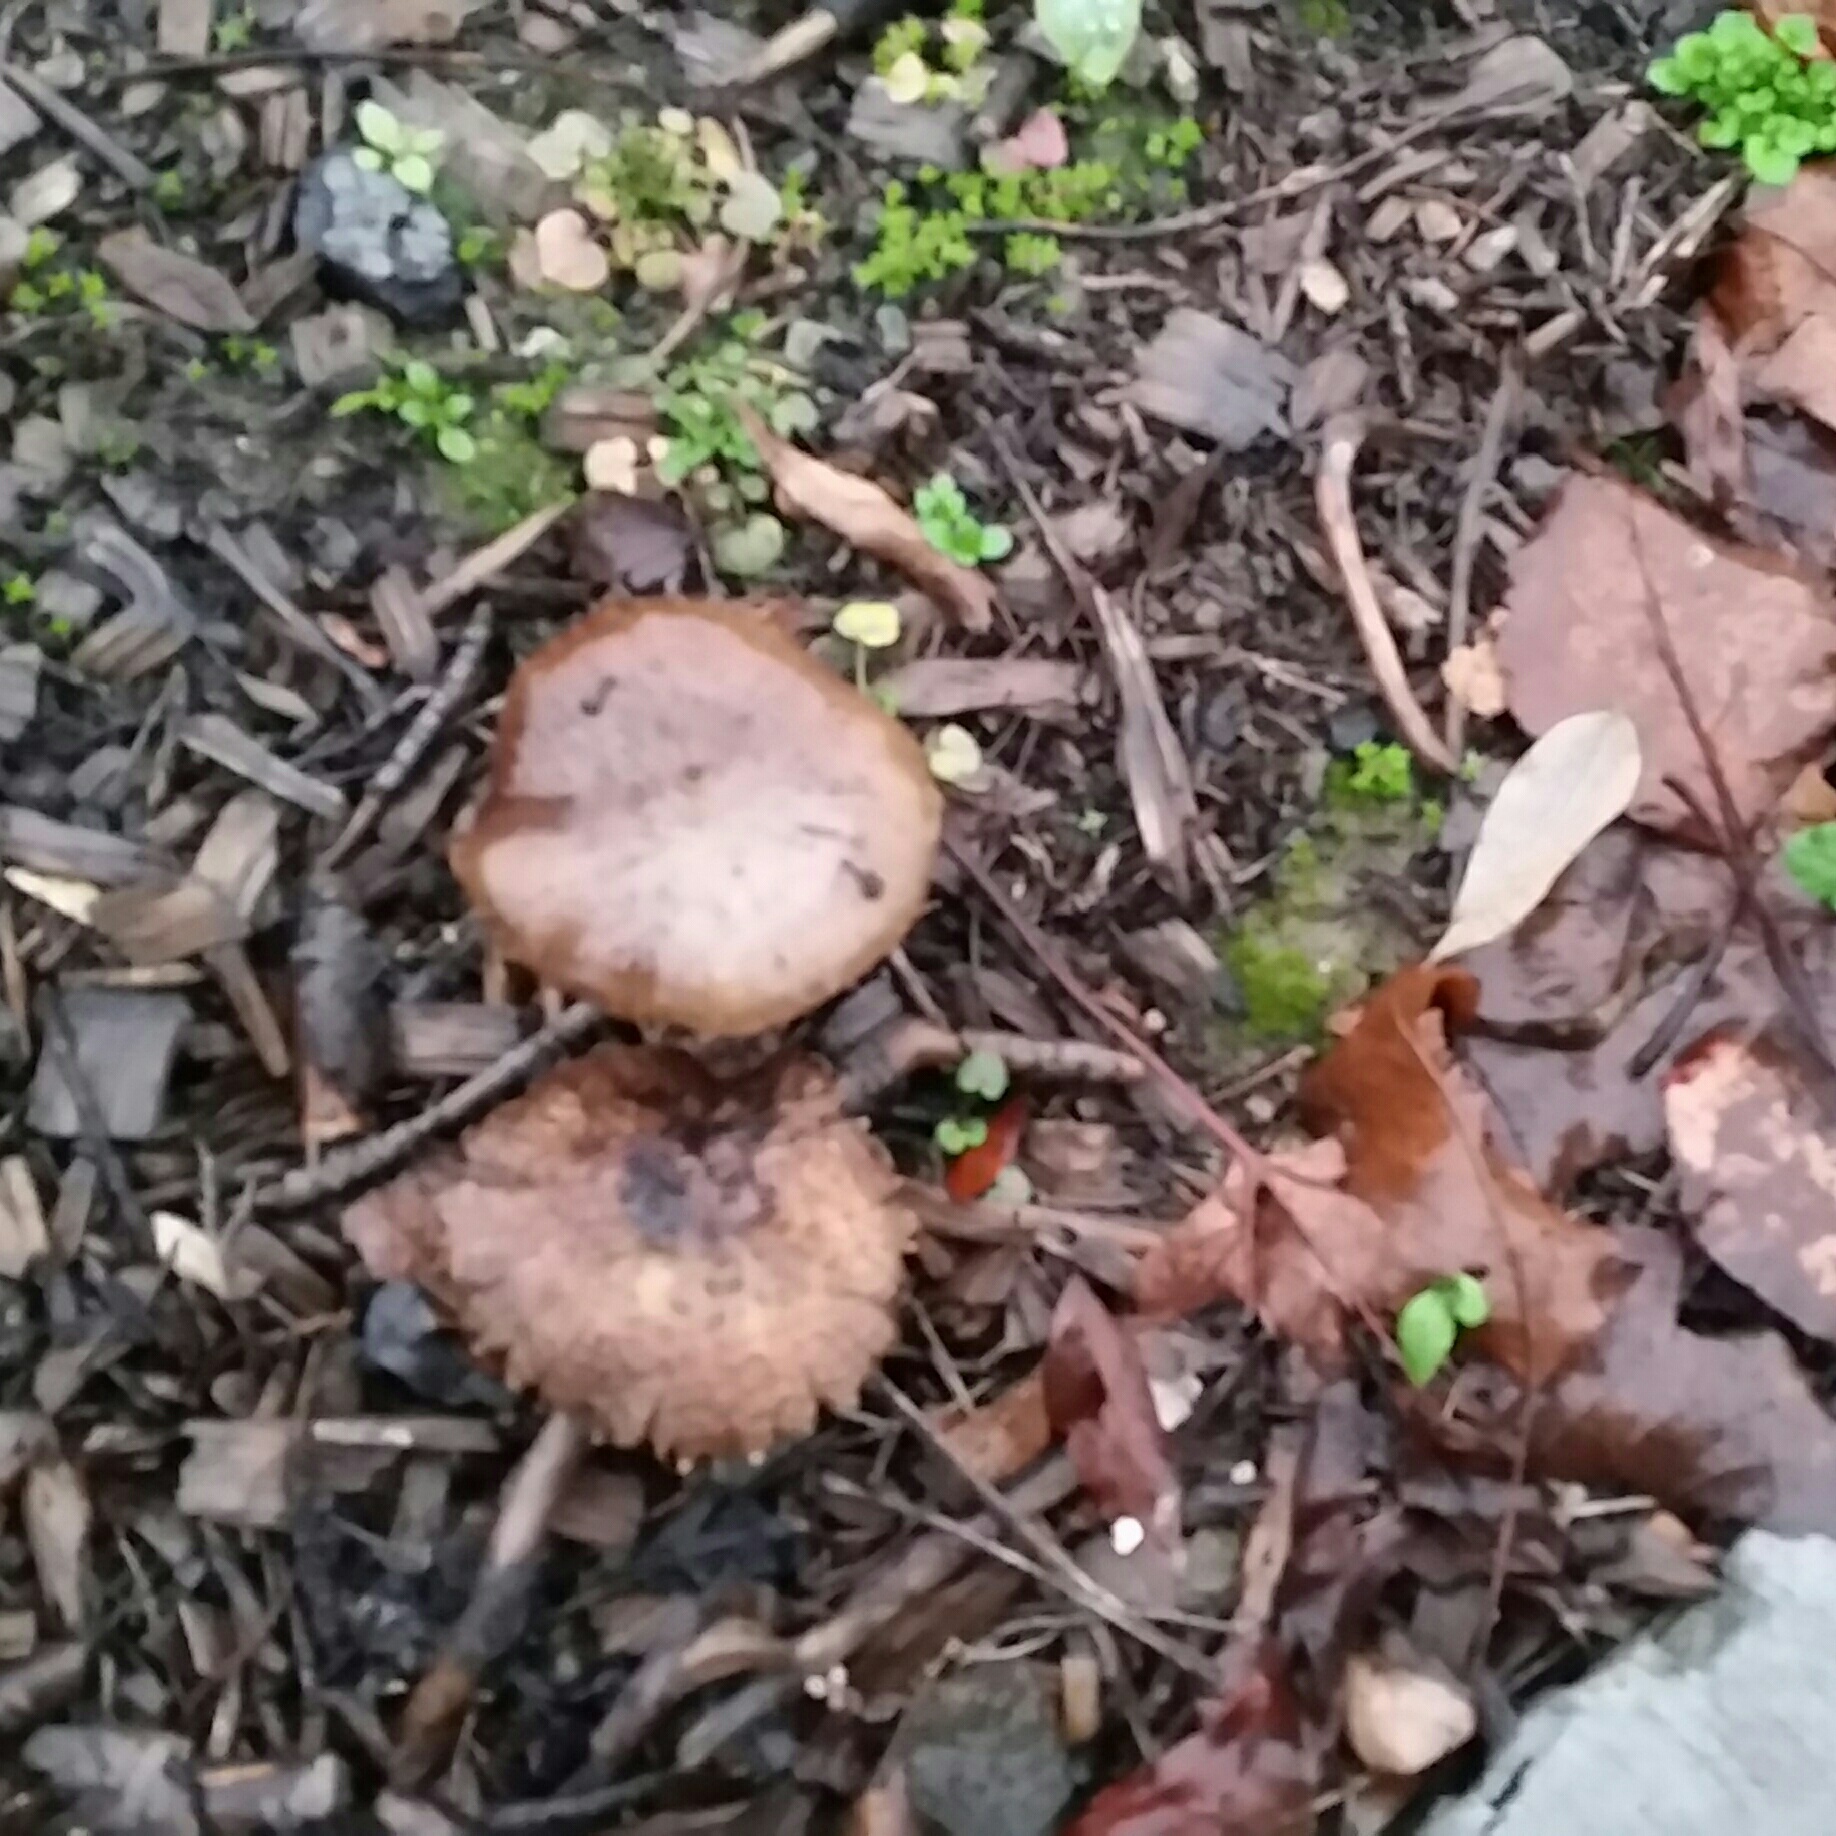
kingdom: Fungi
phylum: Basidiomycota
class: Agaricomycetes
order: Agaricales
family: Strophariaceae
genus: Leratiomyces
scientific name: Leratiomyces percevalii
